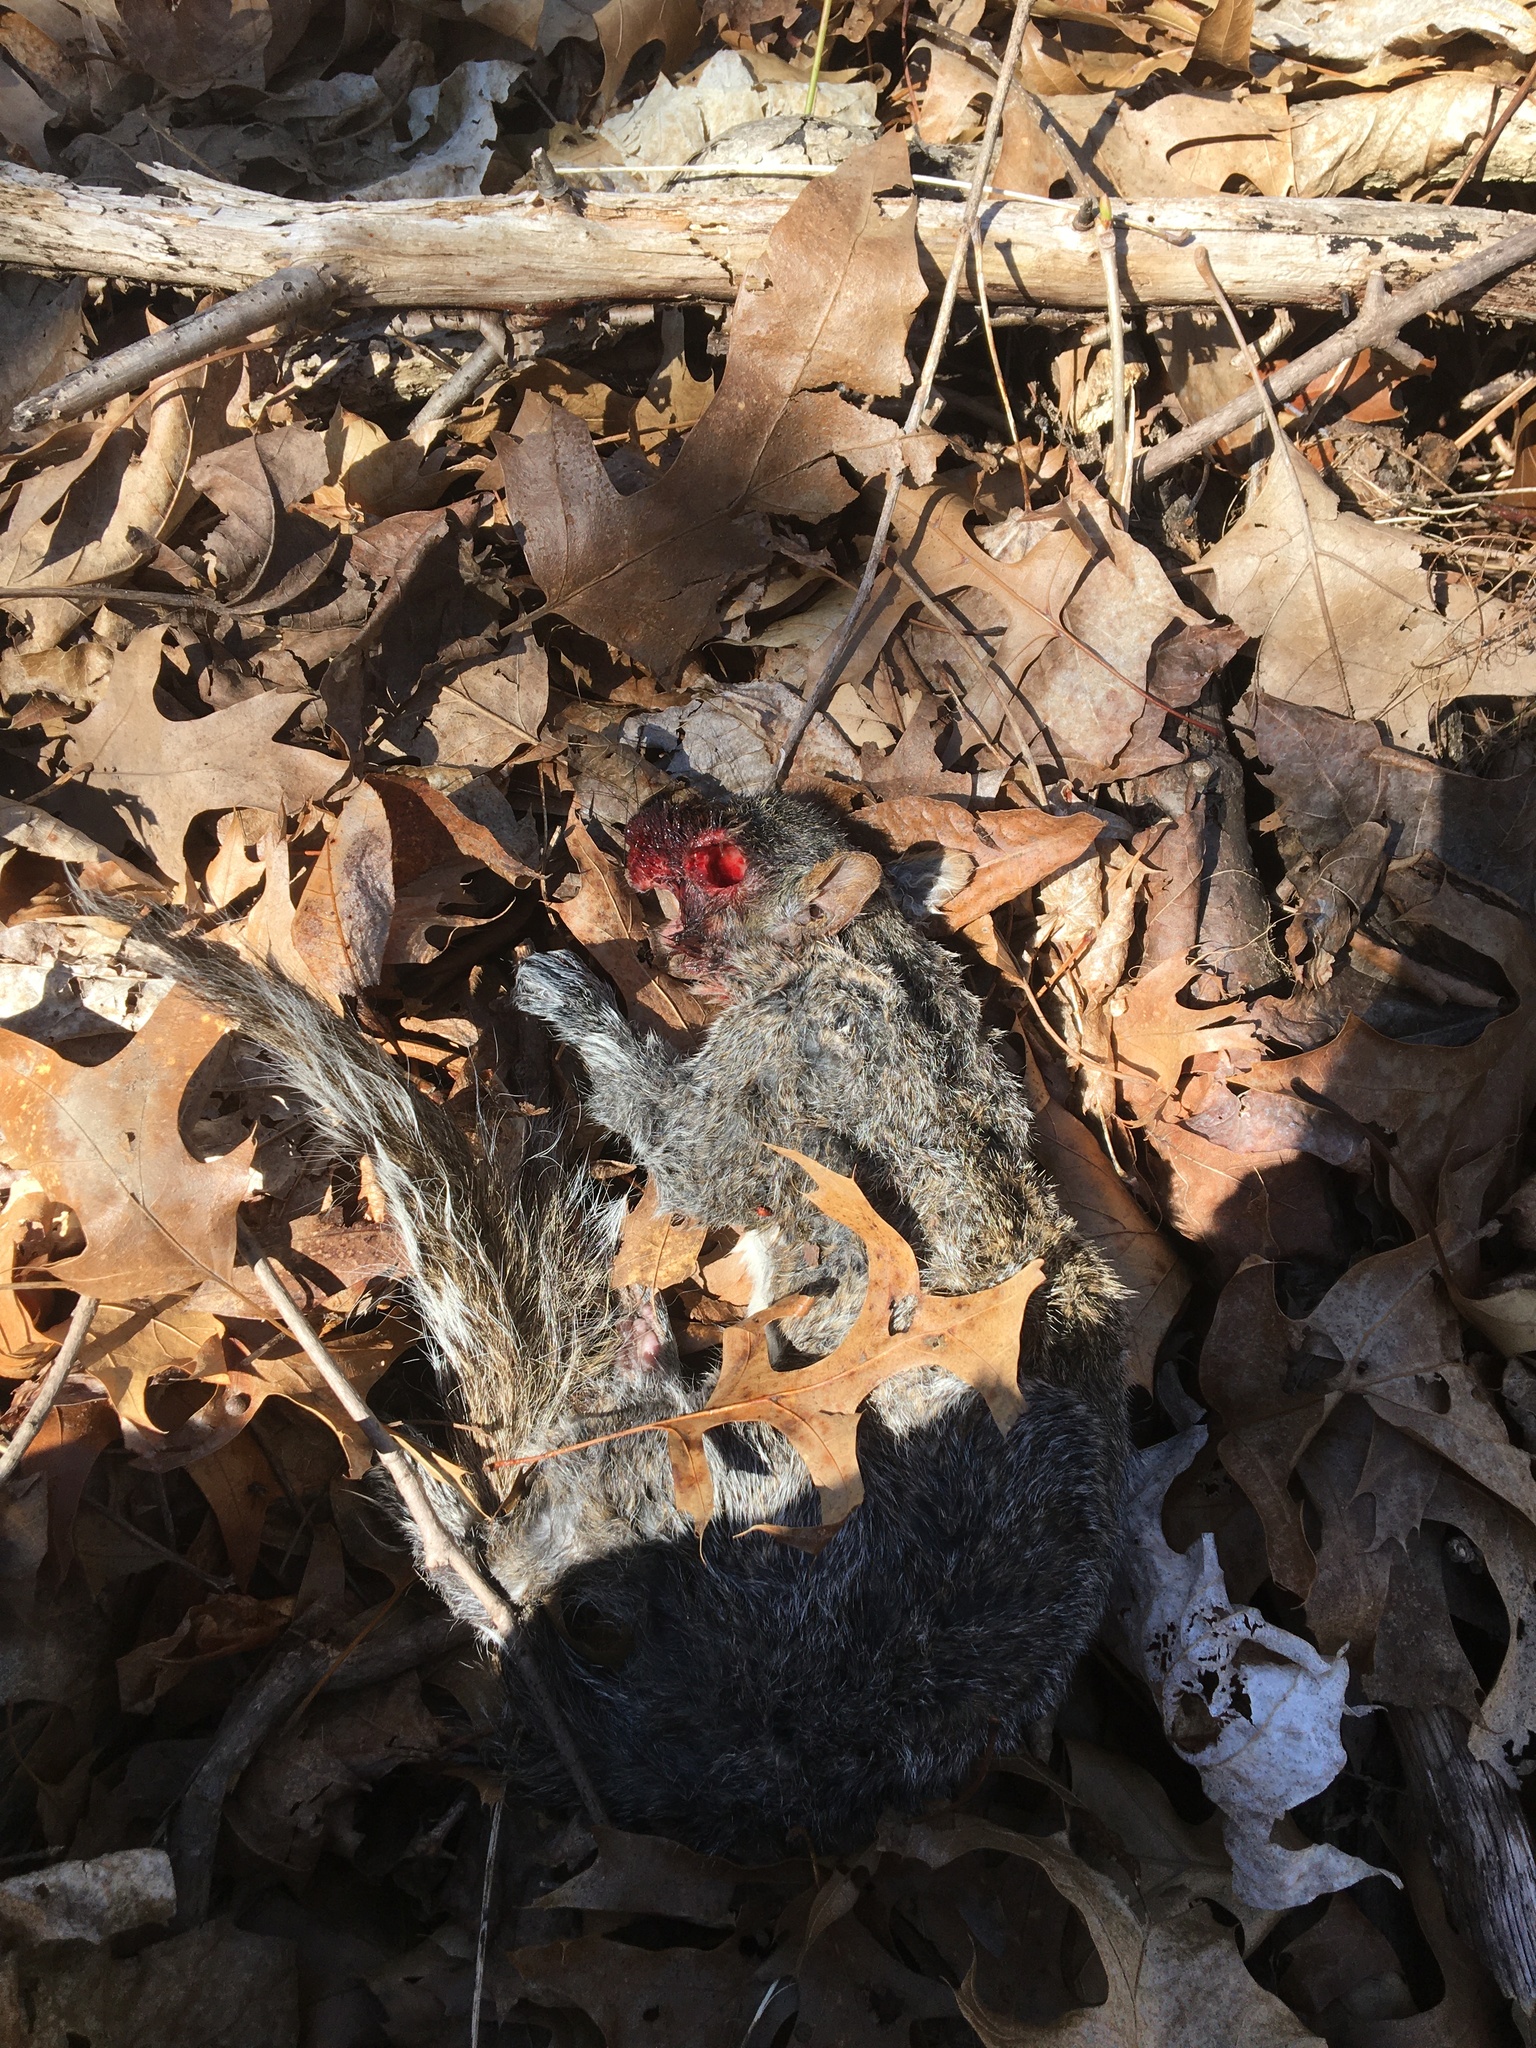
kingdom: Animalia
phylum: Chordata
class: Mammalia
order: Rodentia
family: Sciuridae
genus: Sciurus
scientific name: Sciurus carolinensis
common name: Eastern gray squirrel
